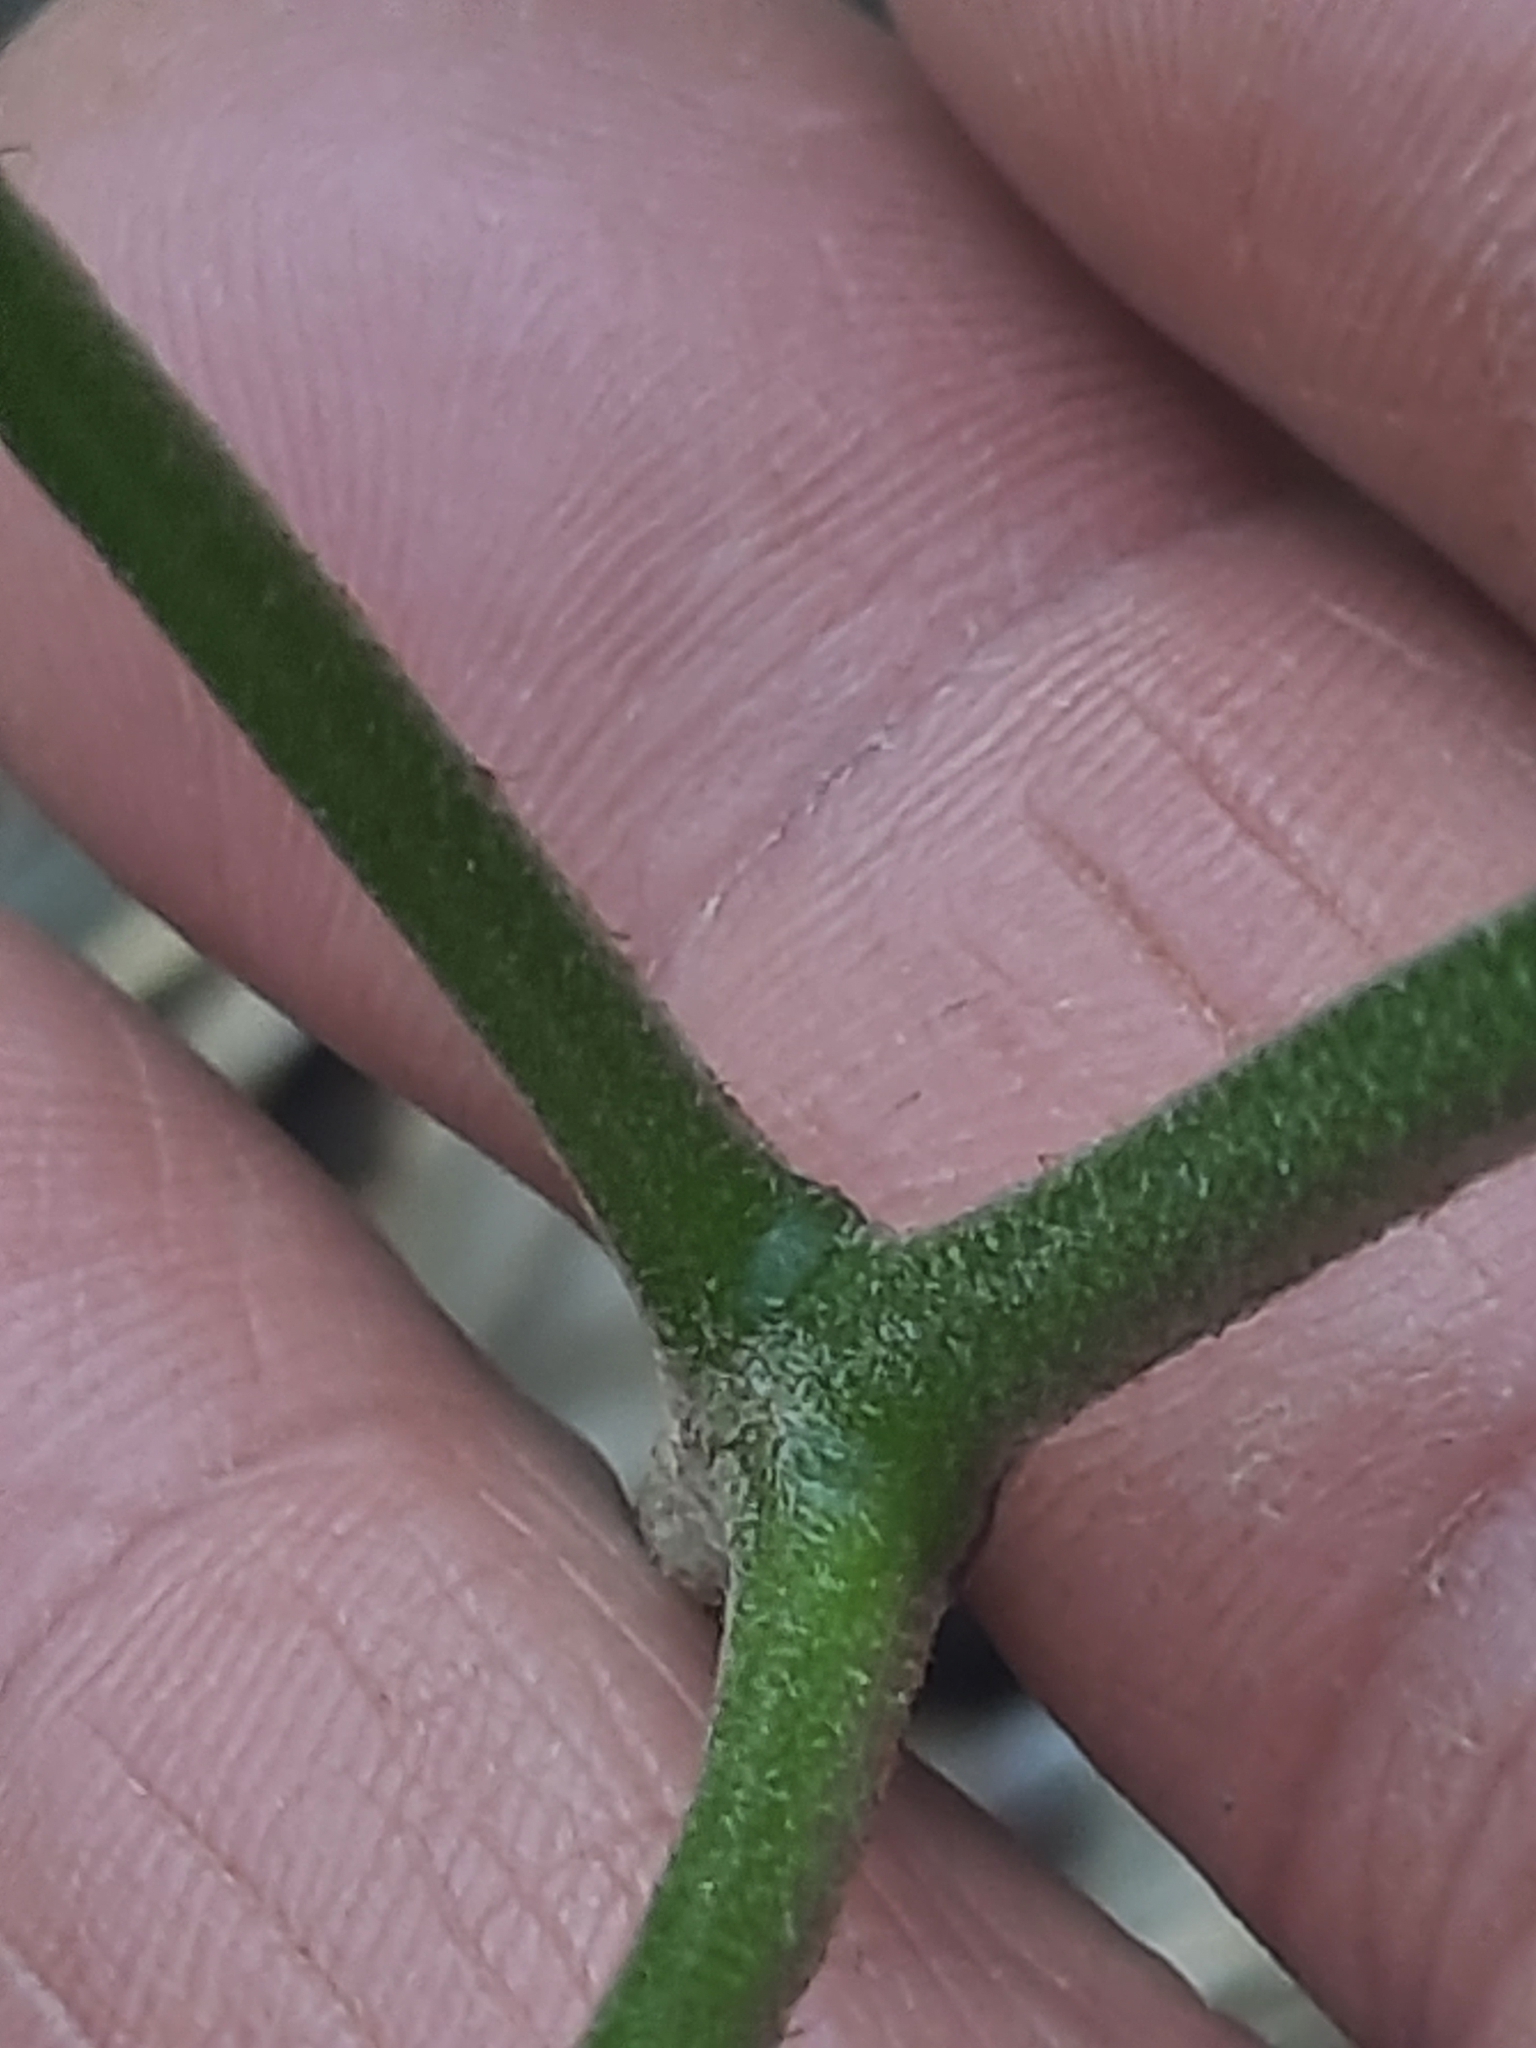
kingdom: Plantae
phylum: Tracheophyta
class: Polypodiopsida
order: Polypodiales
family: Dennstaedtiaceae
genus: Pteridium
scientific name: Pteridium aquilinum
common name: Bracken
